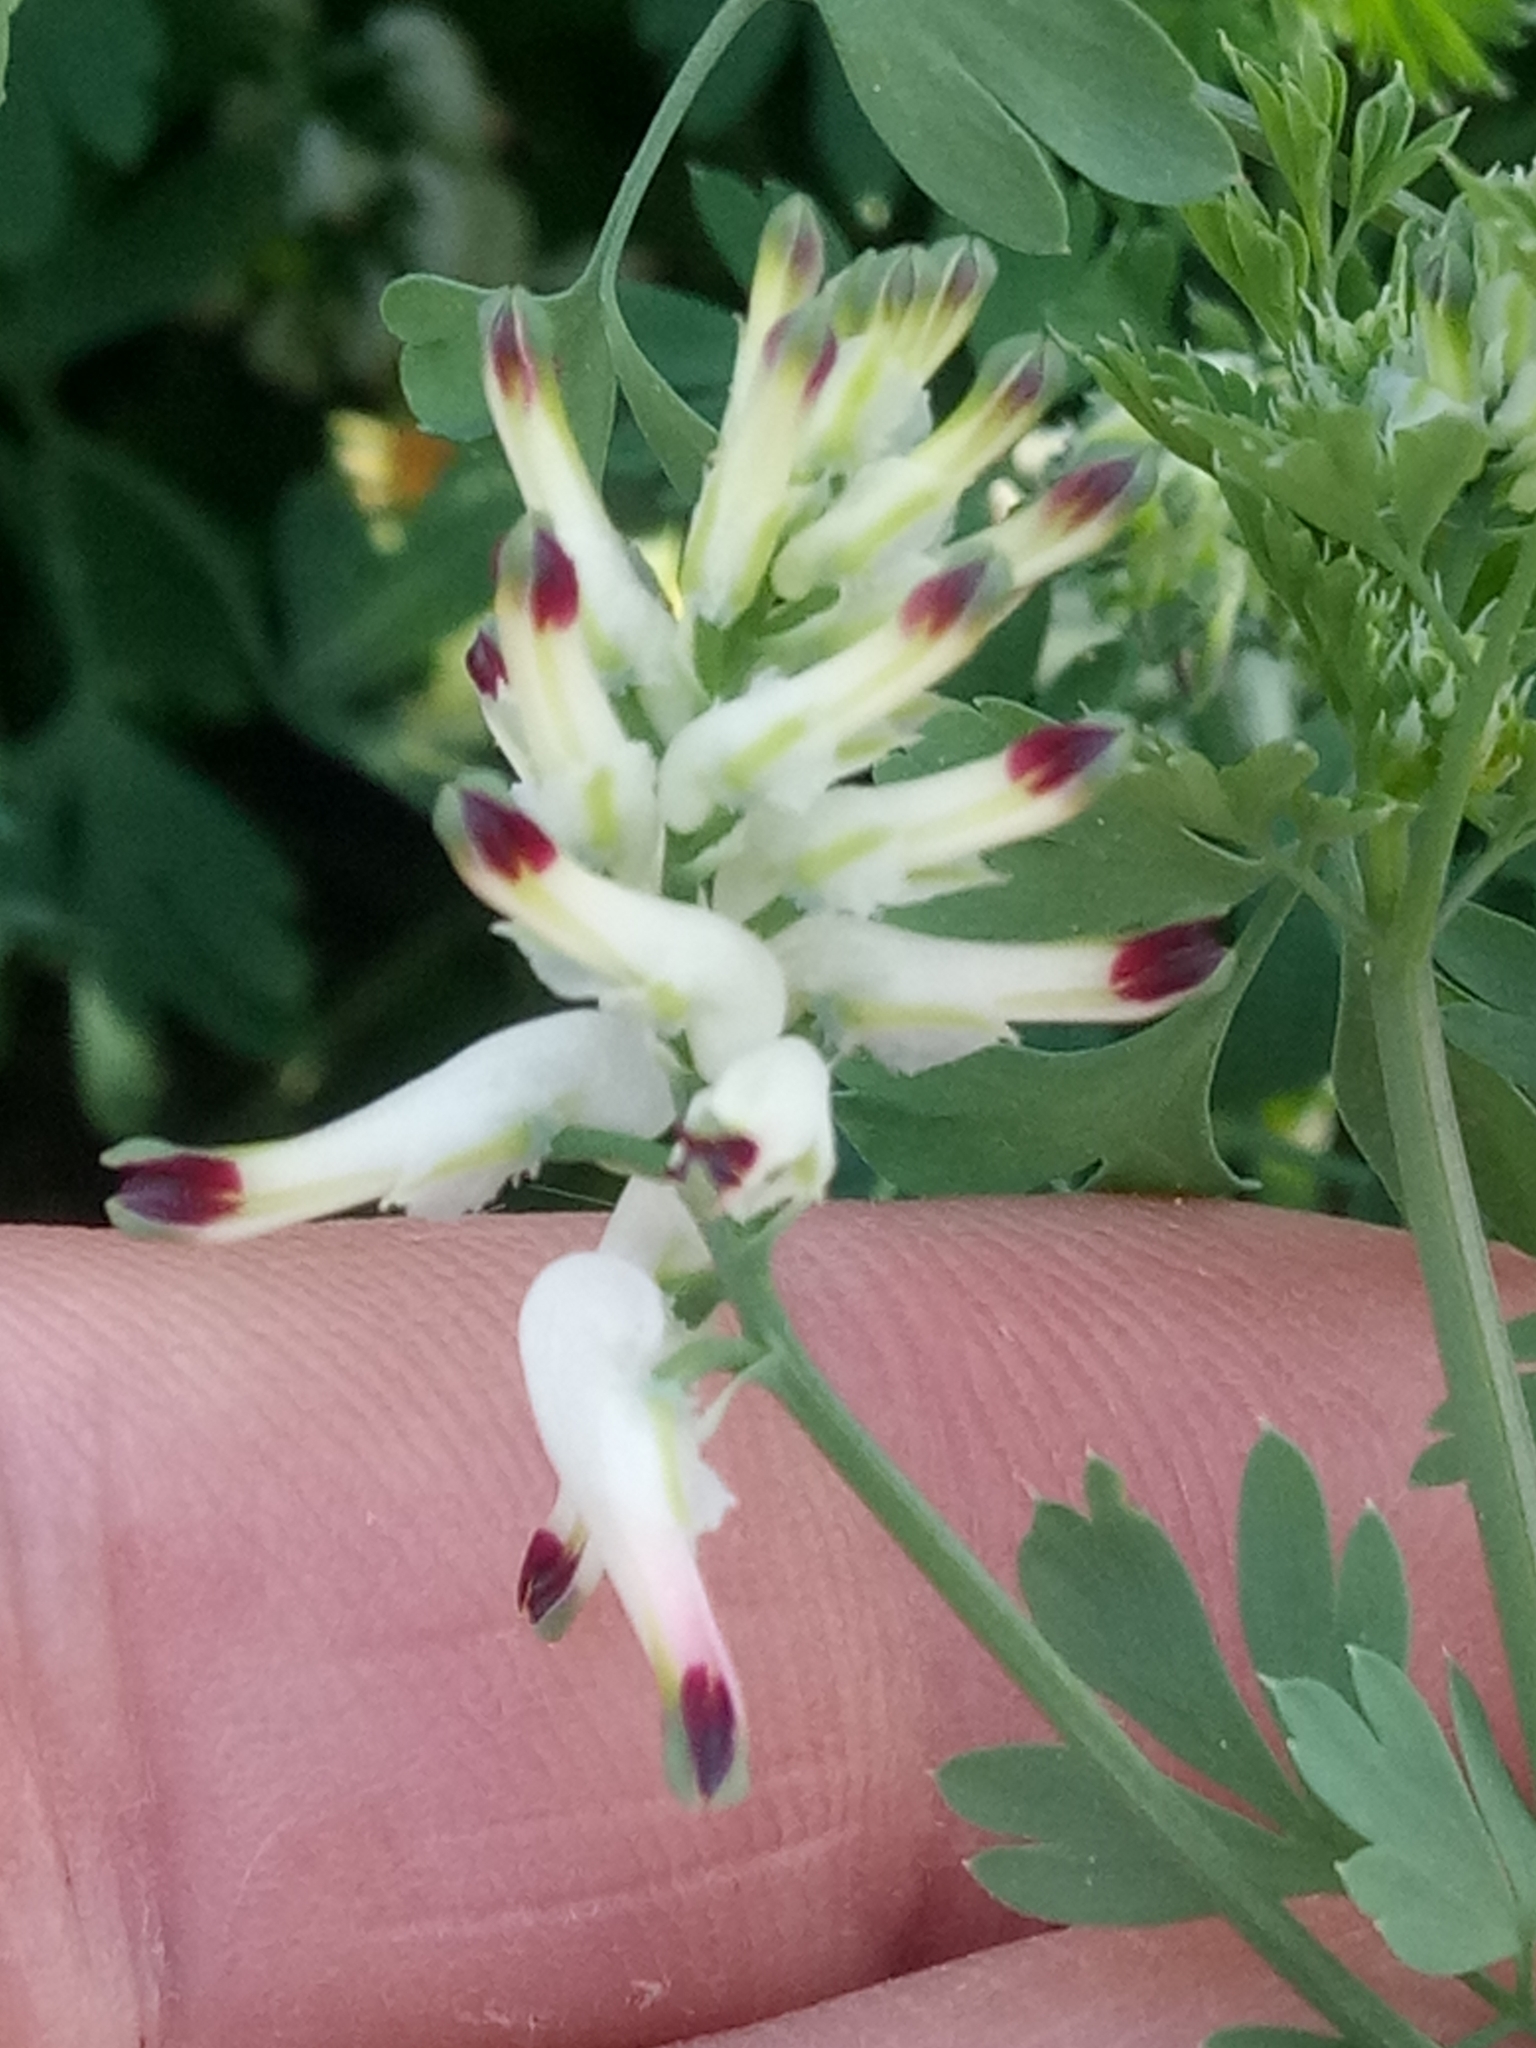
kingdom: Plantae
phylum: Tracheophyta
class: Magnoliopsida
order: Ranunculales
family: Papaveraceae
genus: Fumaria
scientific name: Fumaria capreolata
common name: White ramping-fumitory
